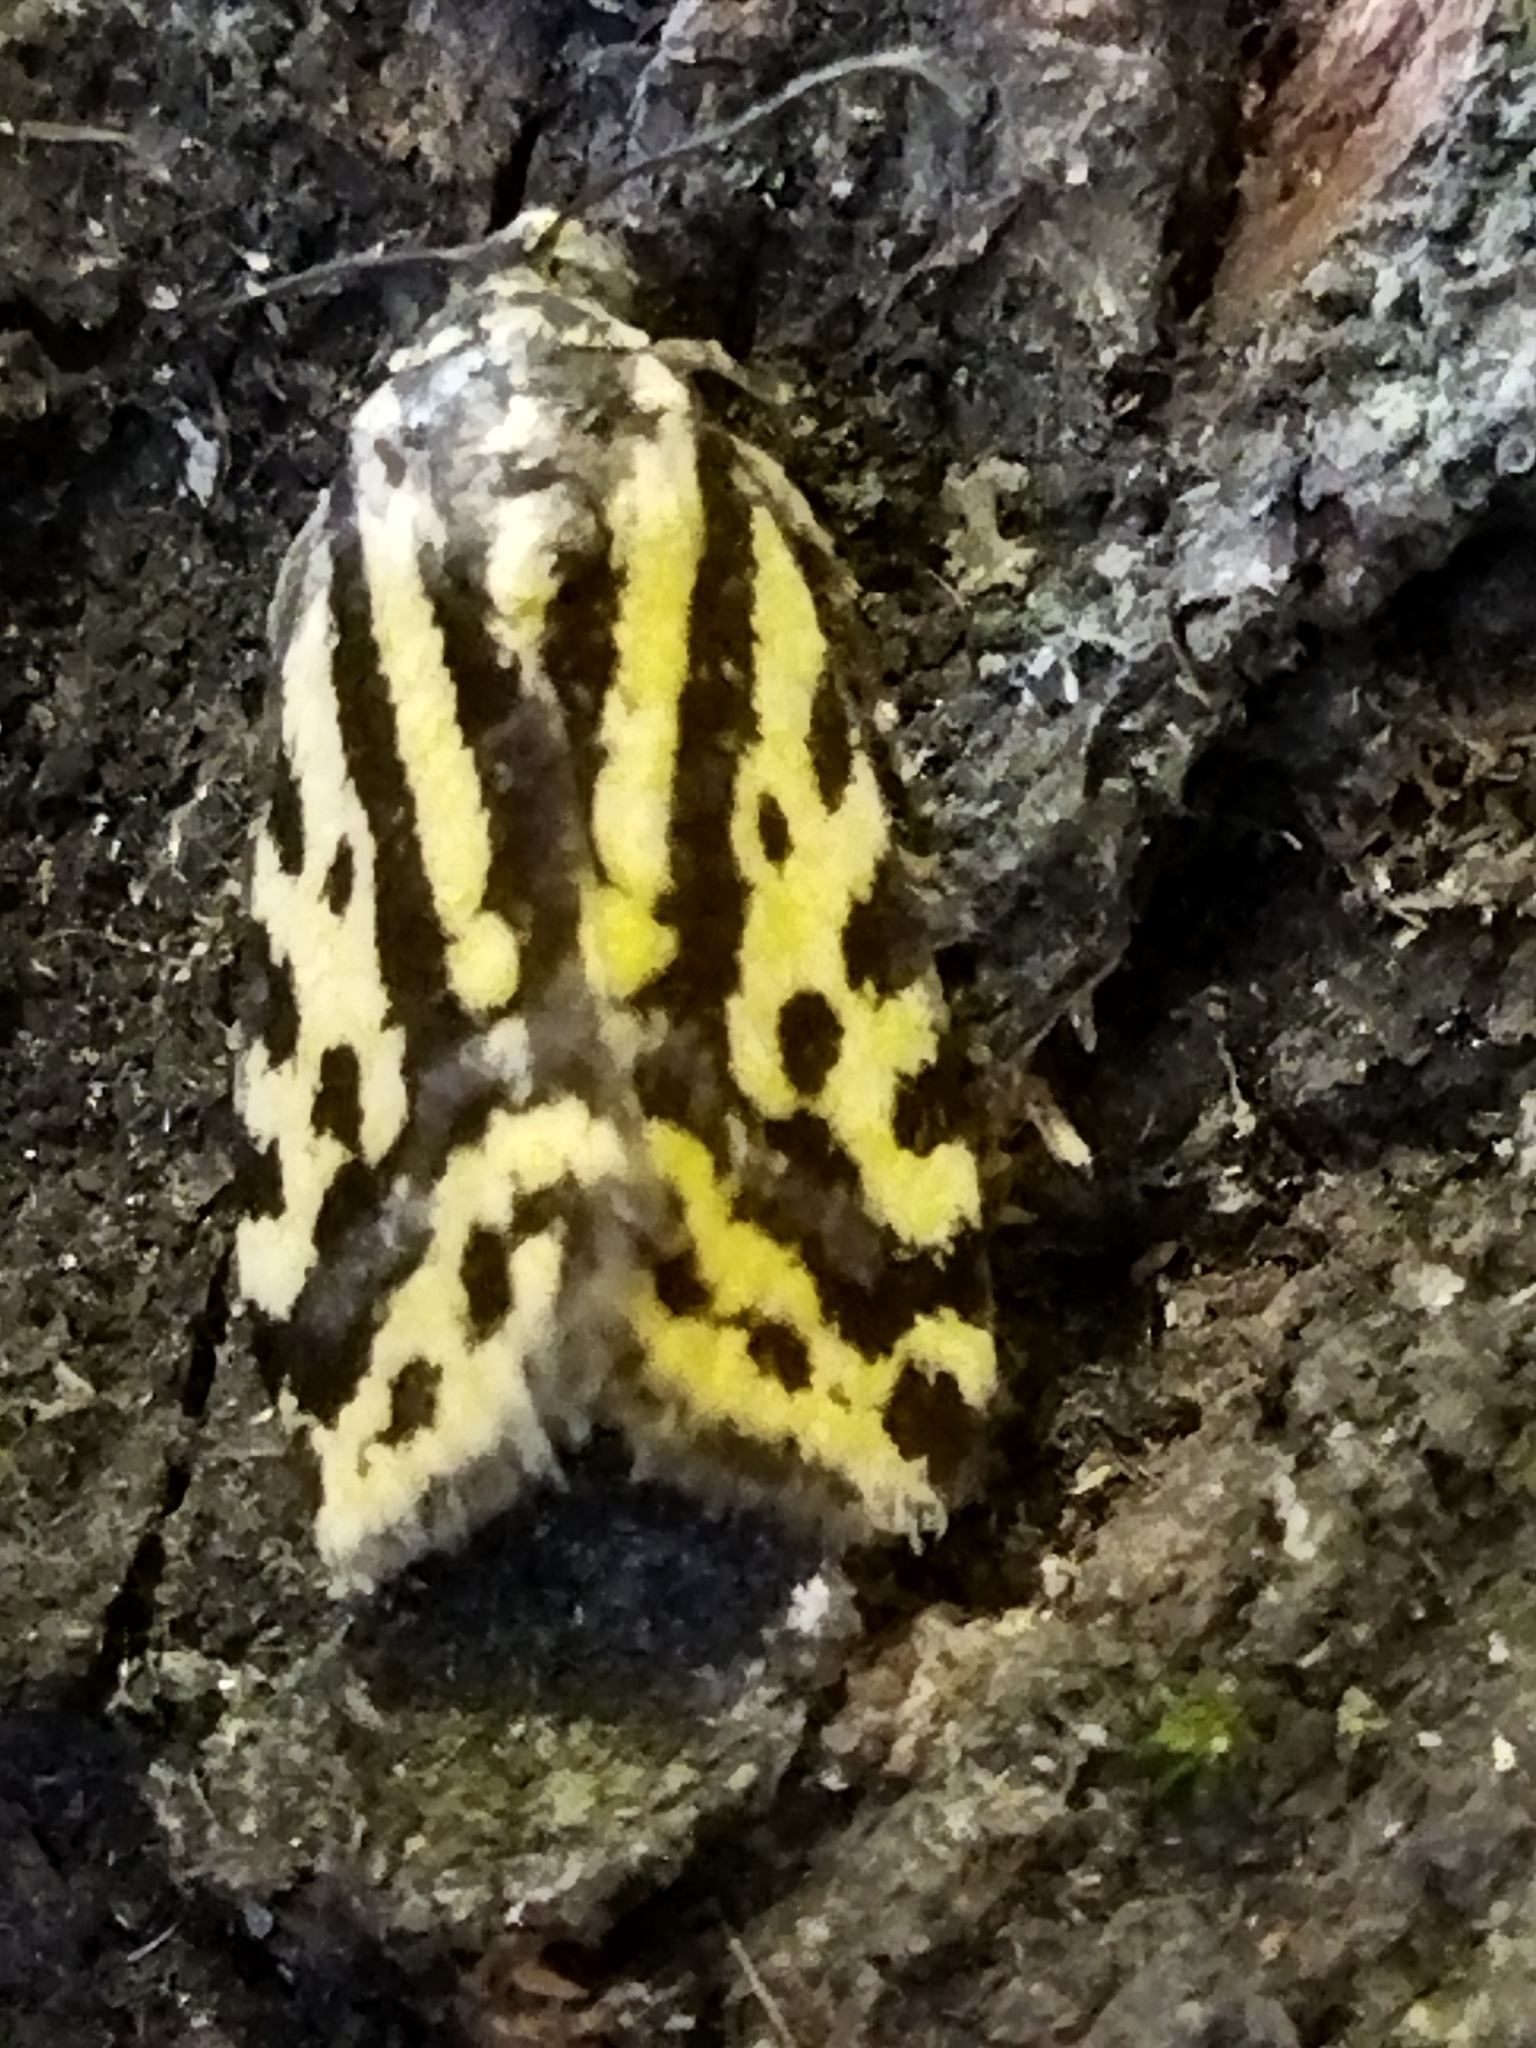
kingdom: Animalia
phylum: Arthropoda
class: Insecta
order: Lepidoptera
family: Noctuidae
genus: Acontia
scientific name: Acontia trabealis
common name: Spotted sulphur
